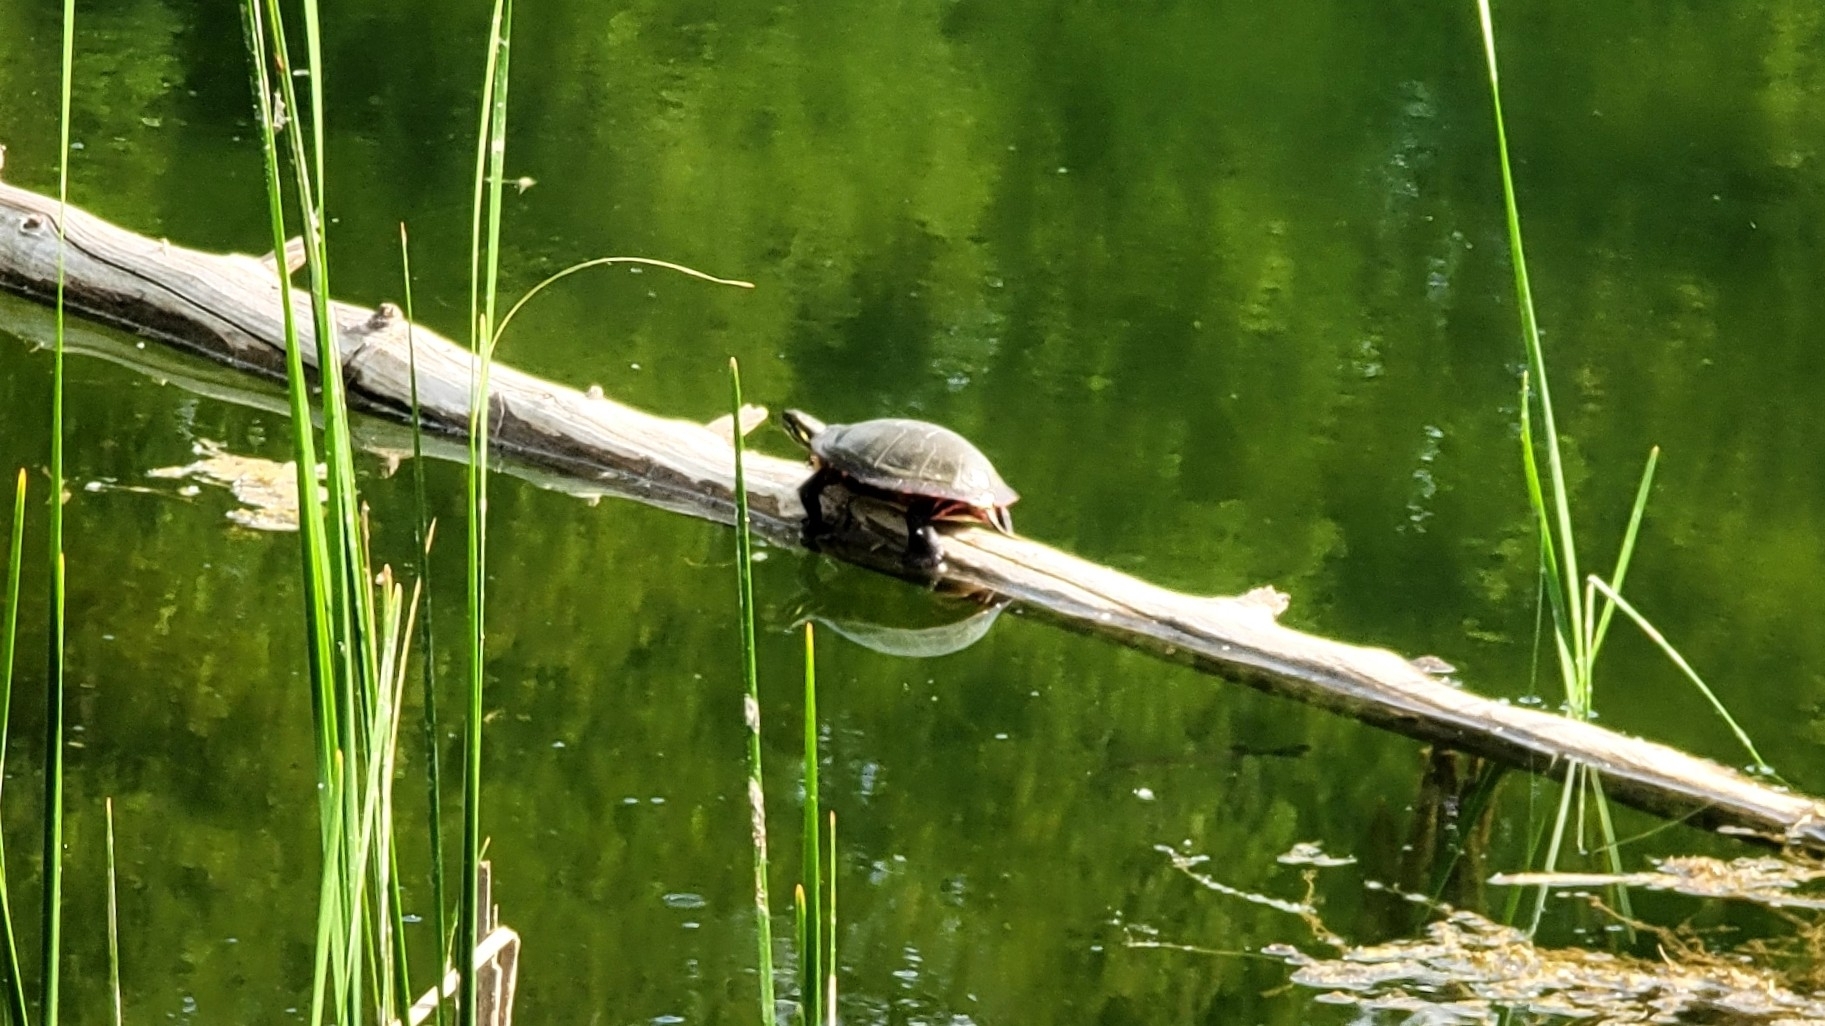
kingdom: Animalia
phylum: Chordata
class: Testudines
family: Emydidae
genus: Chrysemys
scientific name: Chrysemys picta
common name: Painted turtle
